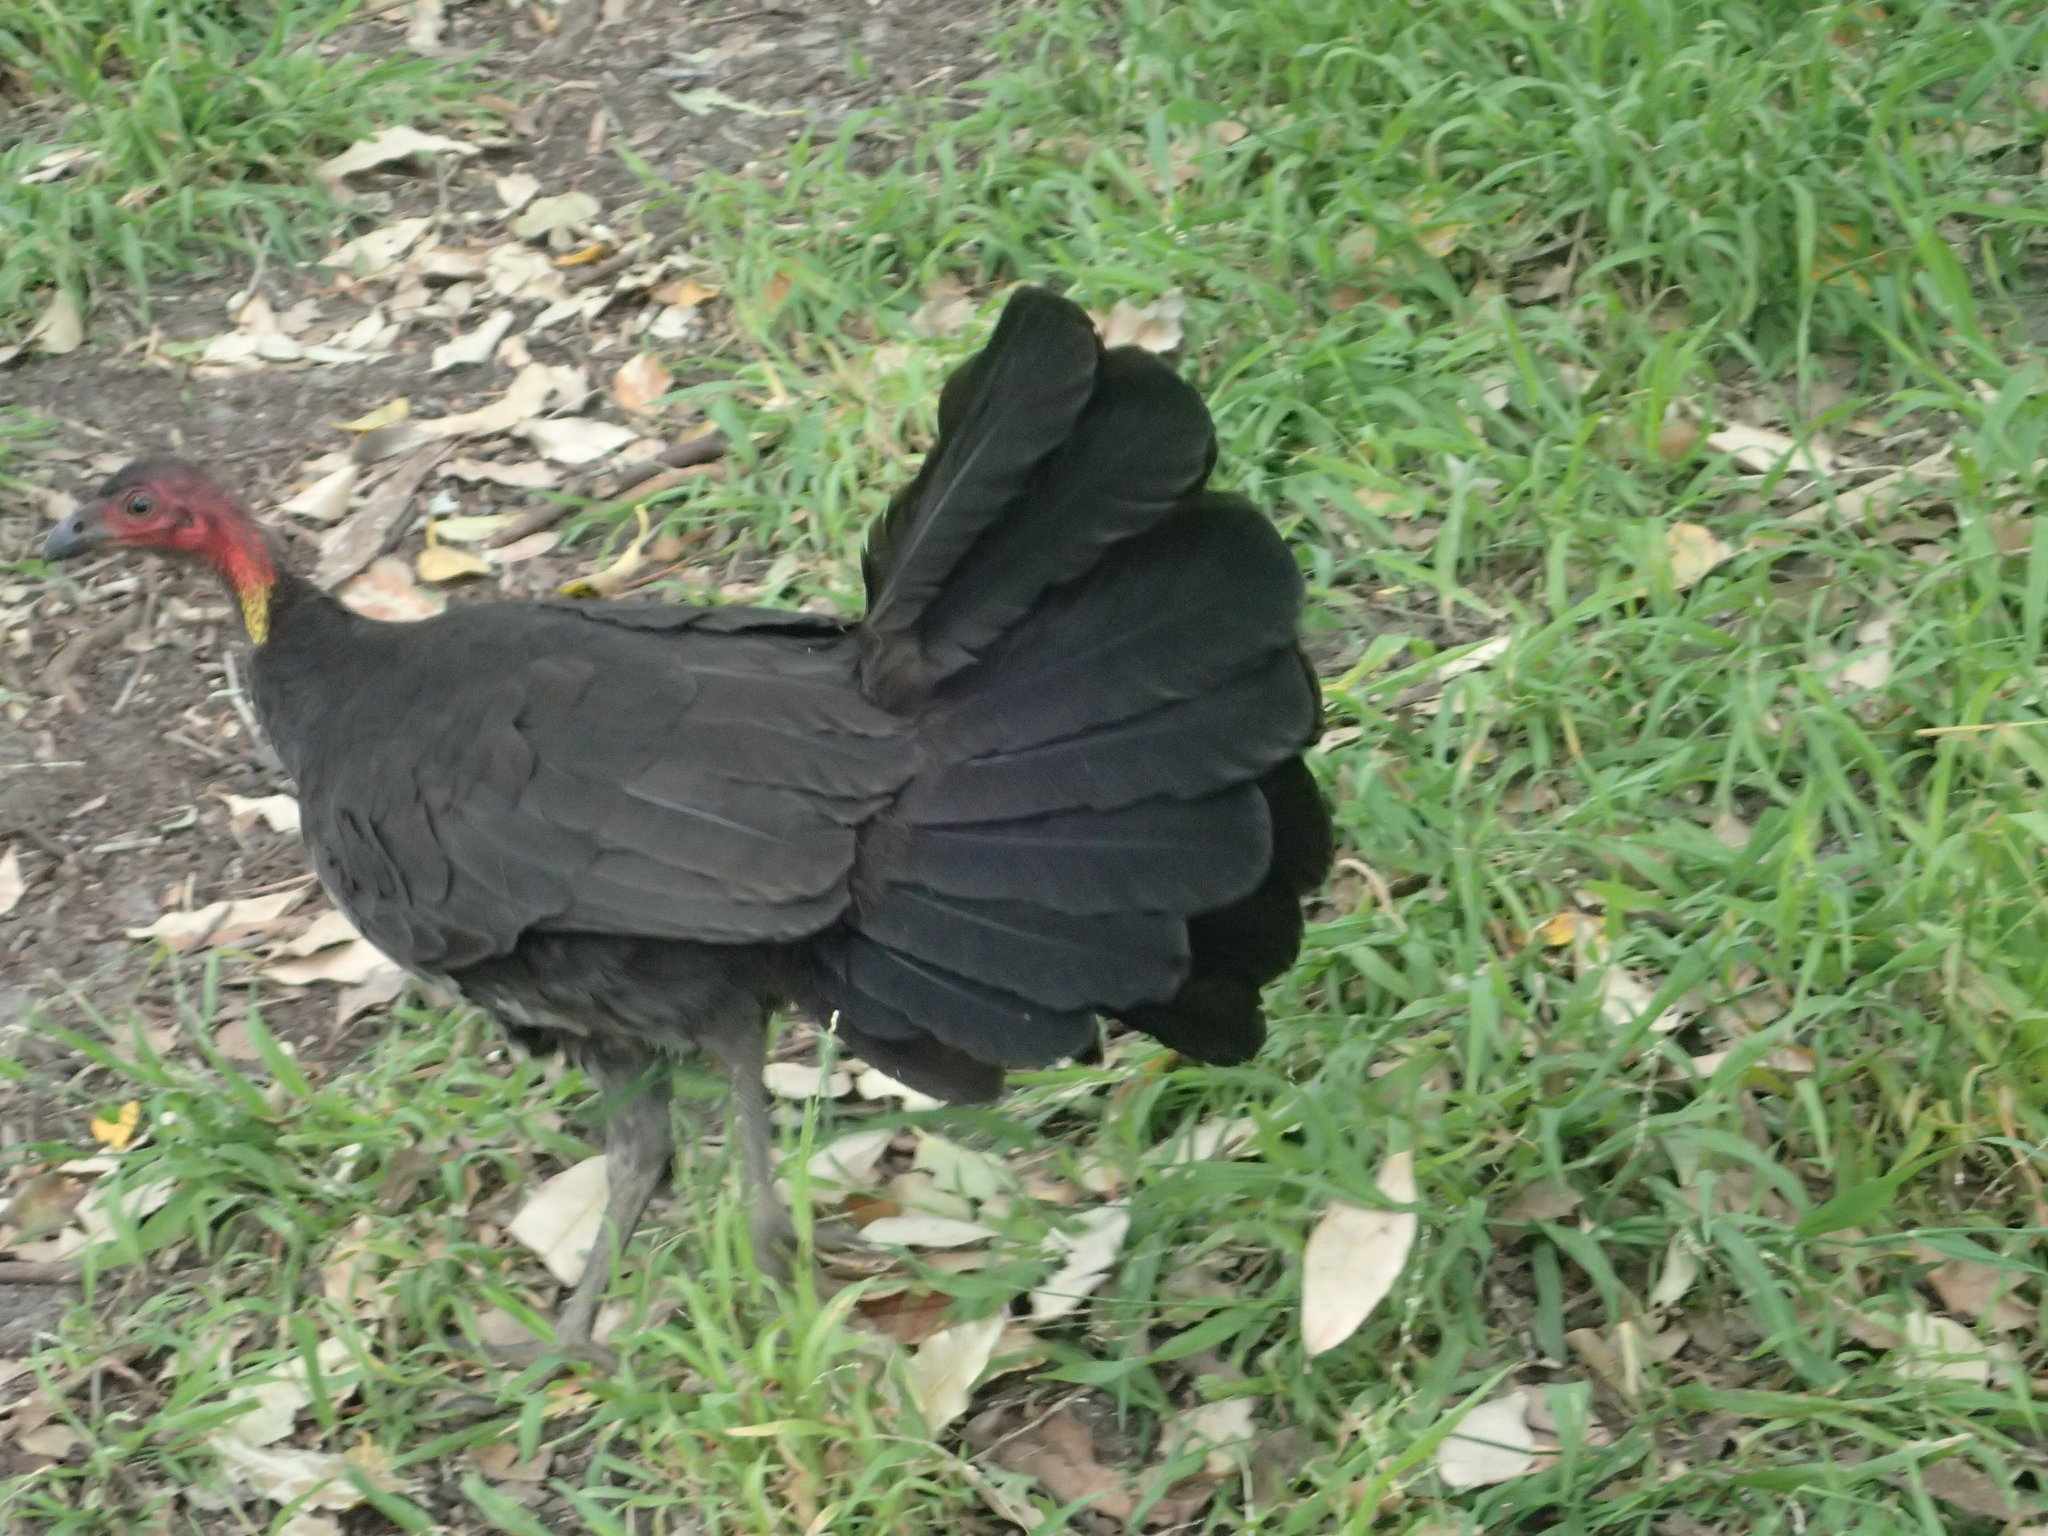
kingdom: Animalia
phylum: Chordata
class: Aves
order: Galliformes
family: Megapodiidae
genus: Alectura
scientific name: Alectura lathami
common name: Australian brushturkey
